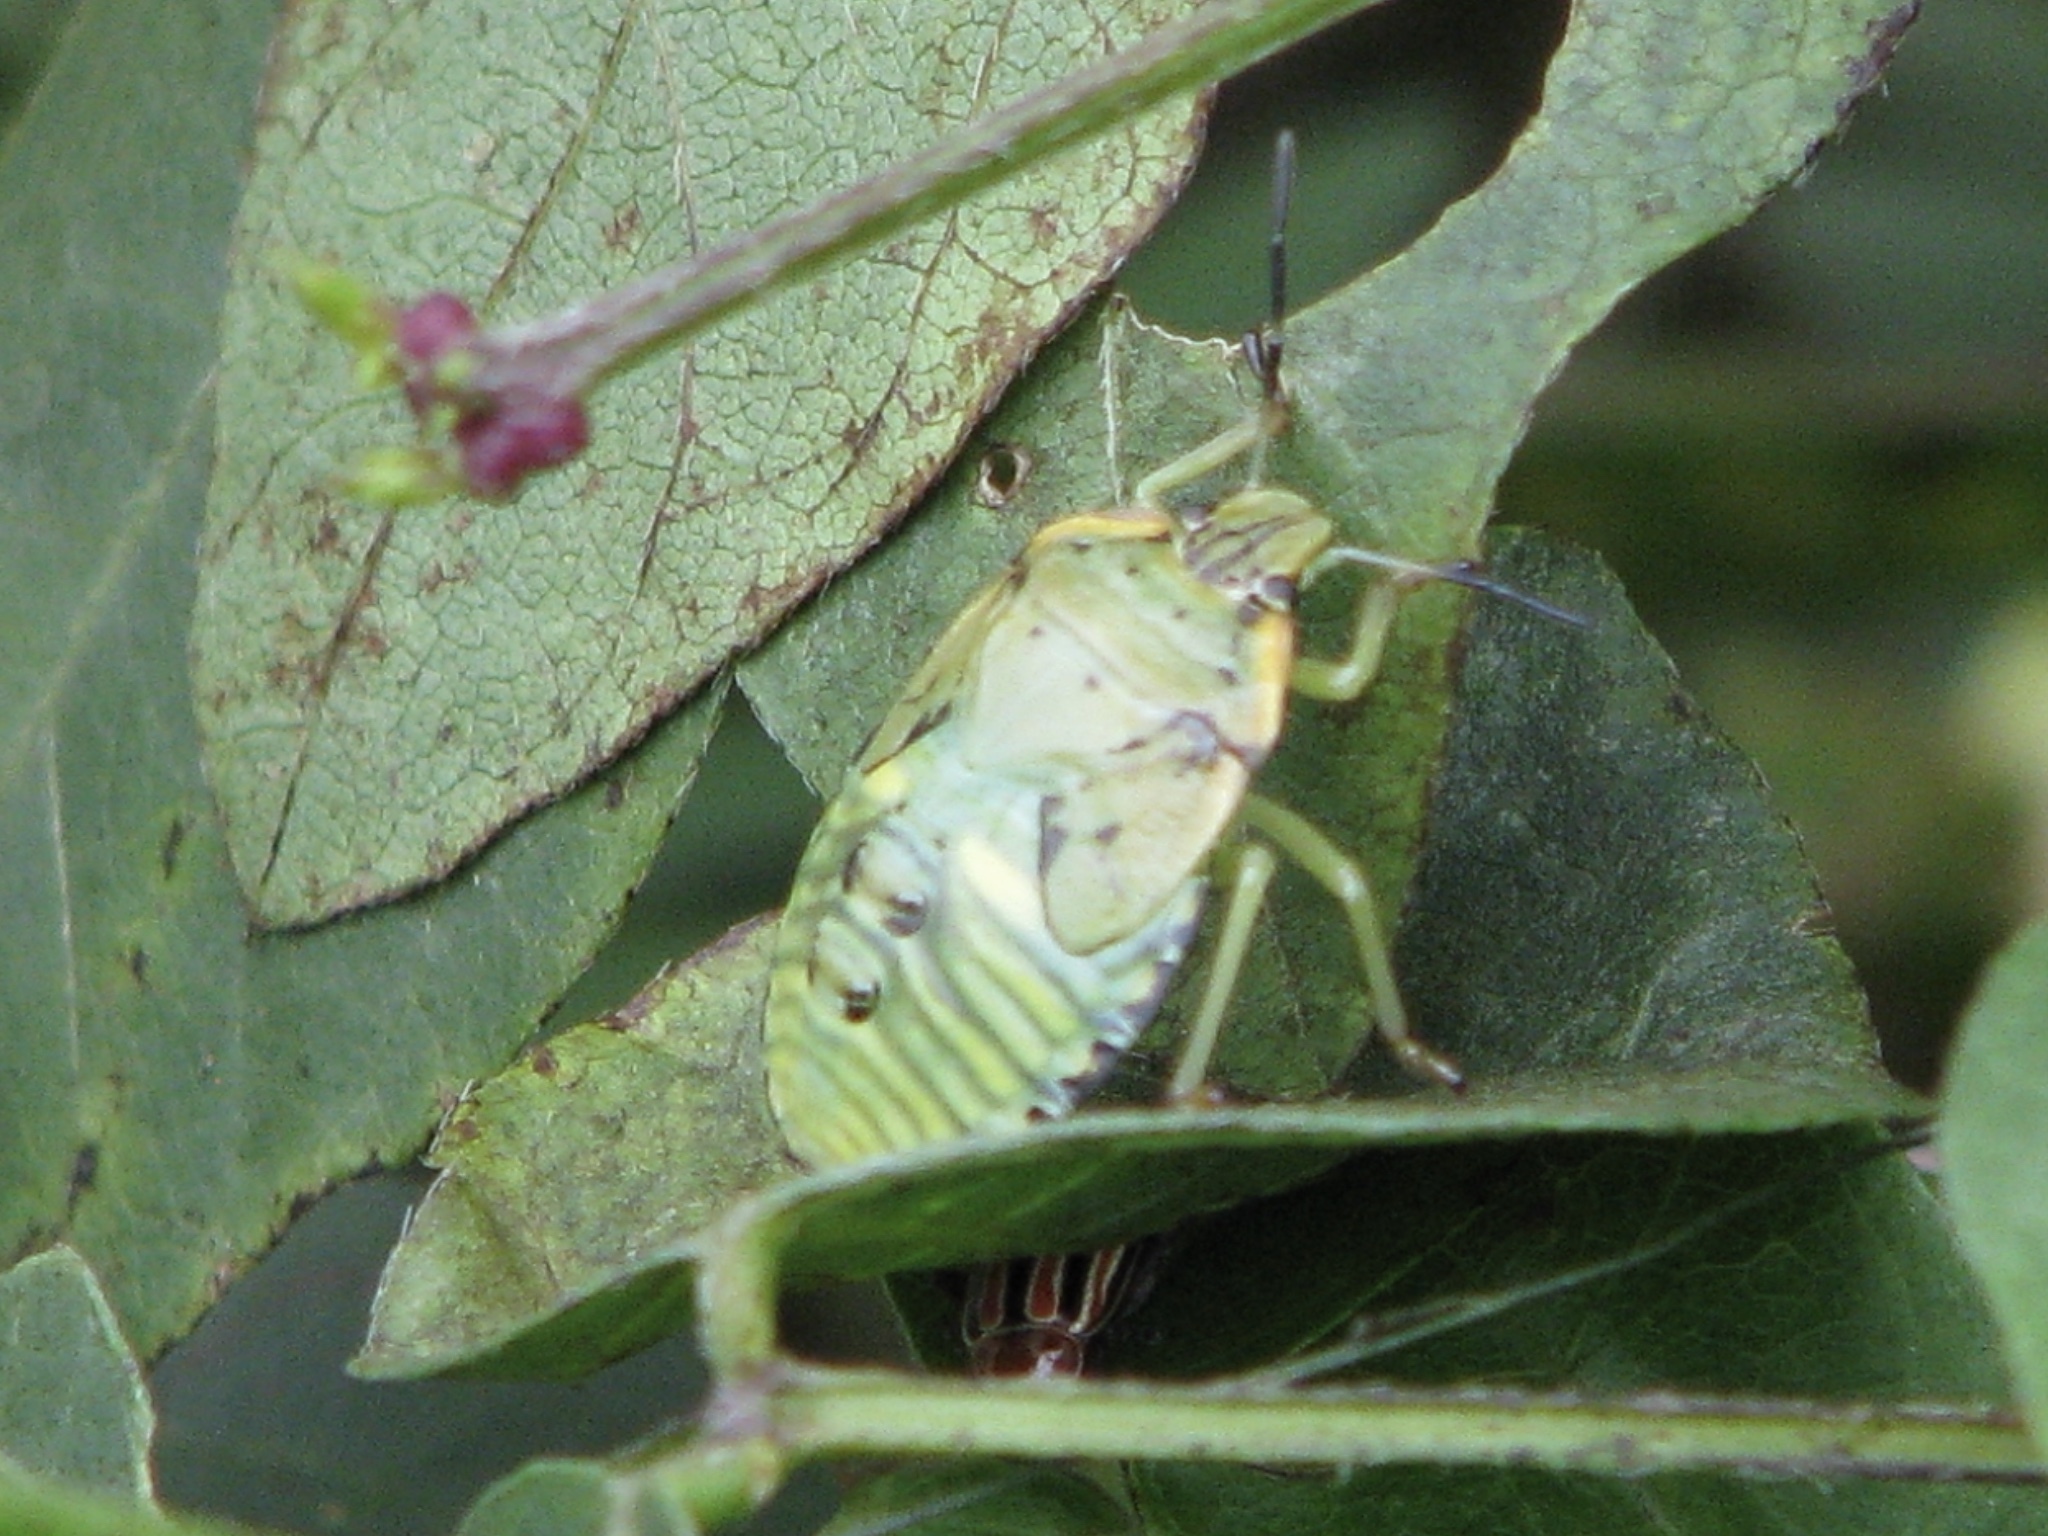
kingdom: Animalia
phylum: Arthropoda
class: Insecta
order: Hemiptera
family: Pentatomidae
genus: Chinavia
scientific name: Chinavia hilaris
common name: Green stink bug
